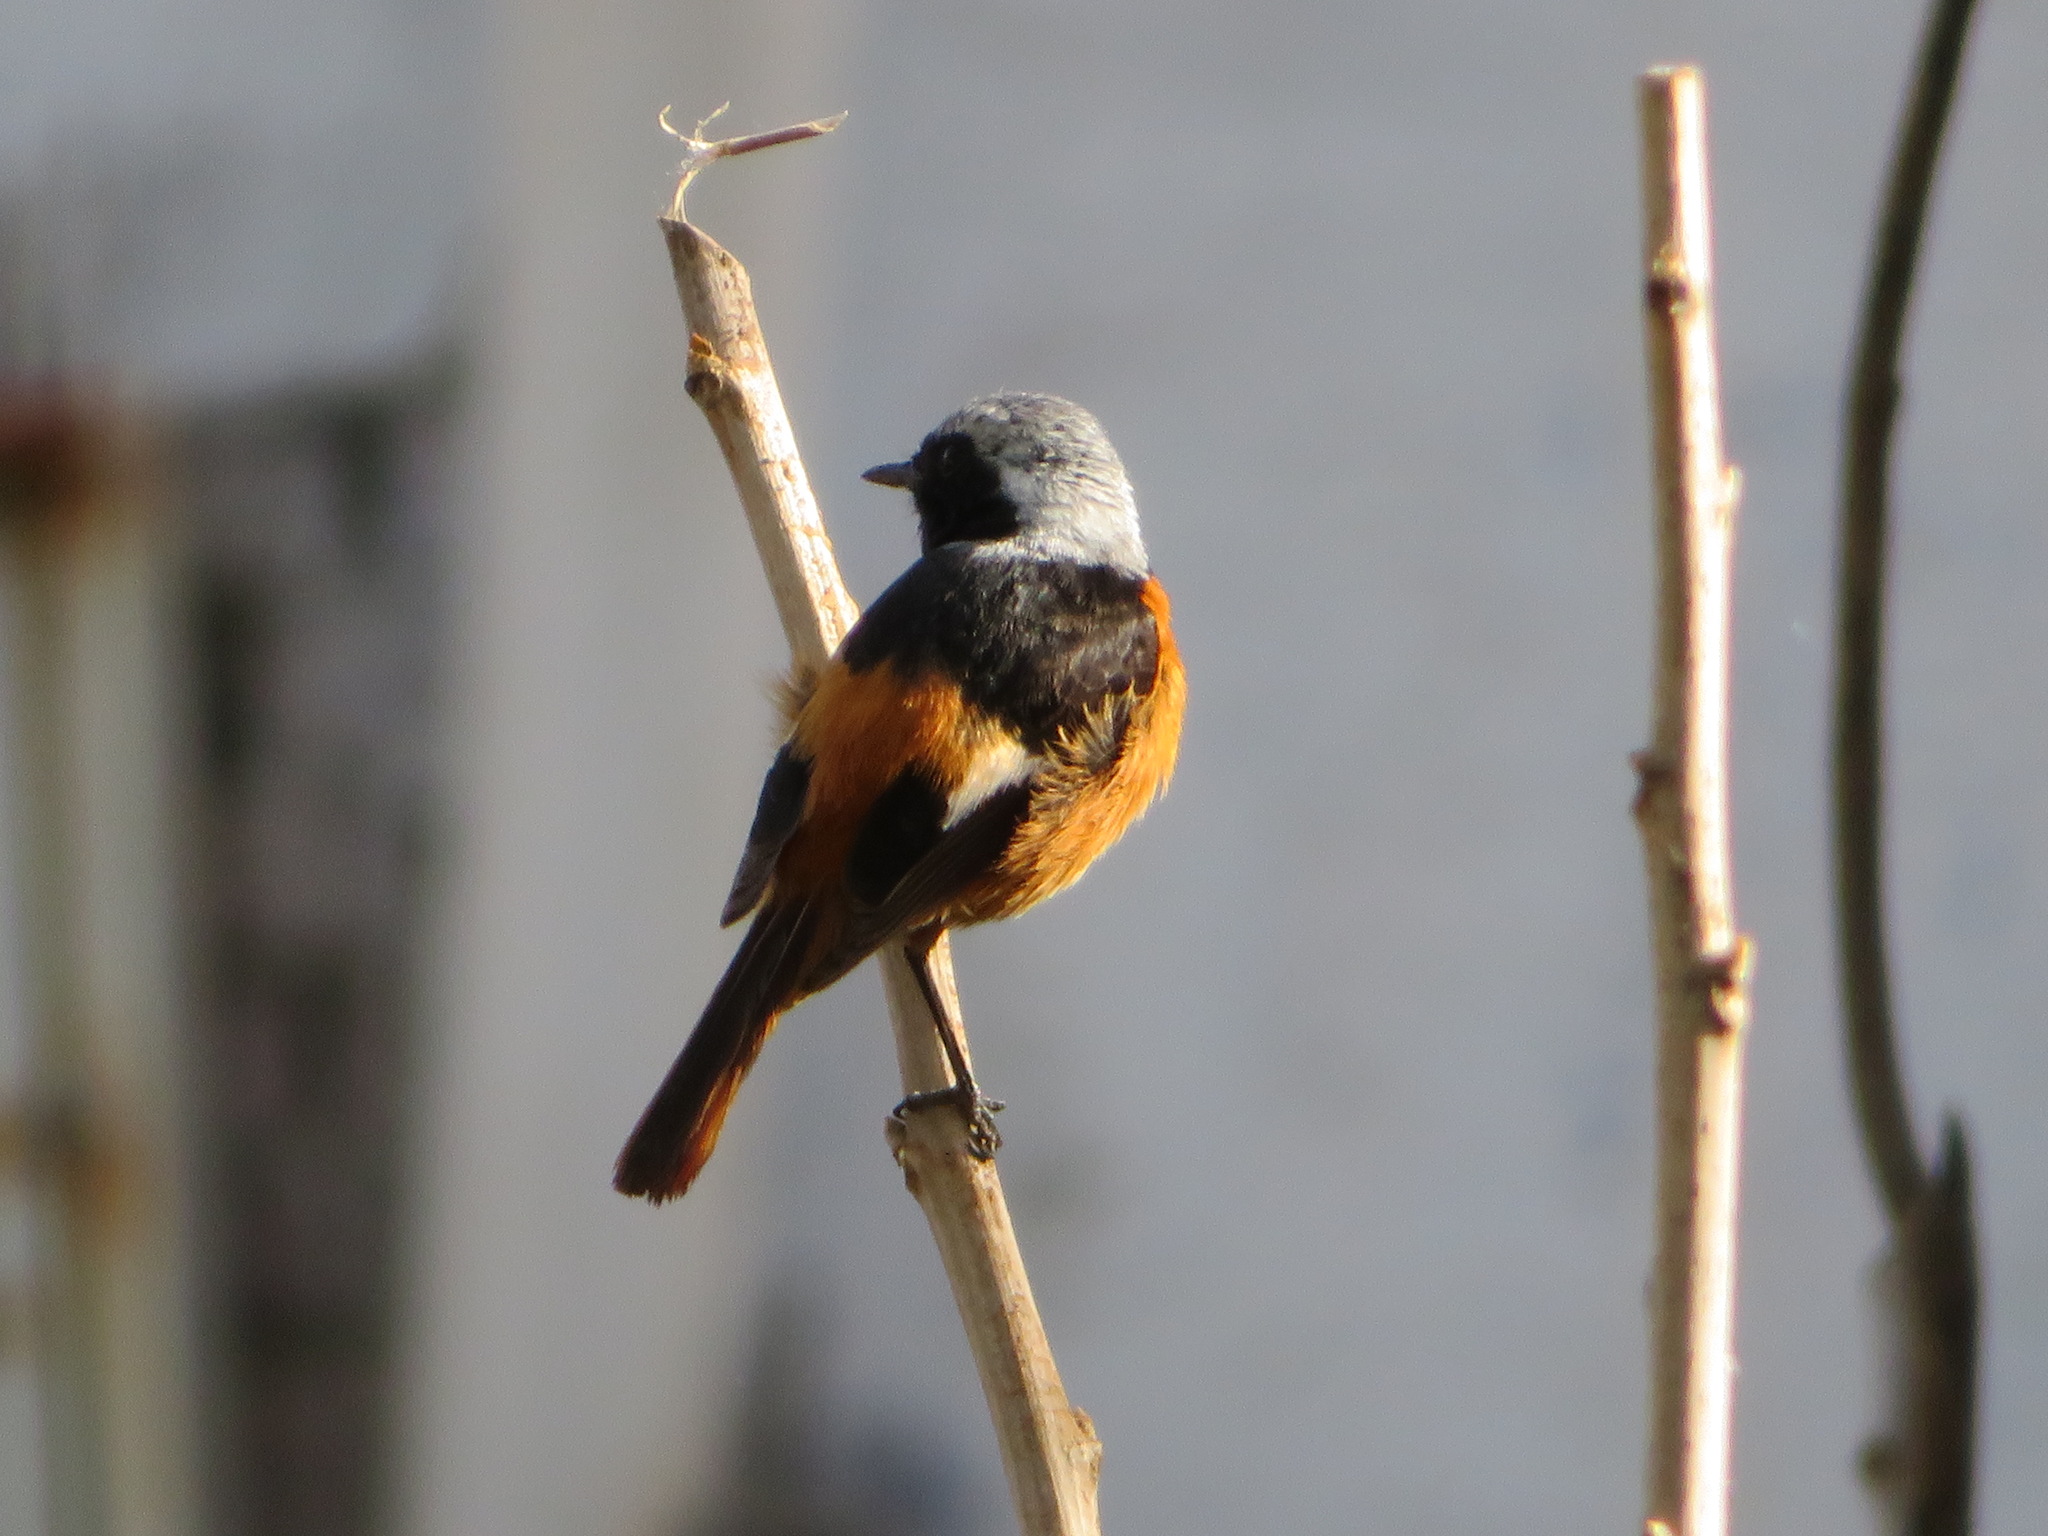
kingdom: Animalia
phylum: Chordata
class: Aves
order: Passeriformes
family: Muscicapidae
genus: Phoenicurus
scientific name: Phoenicurus auroreus
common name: Daurian redstart
